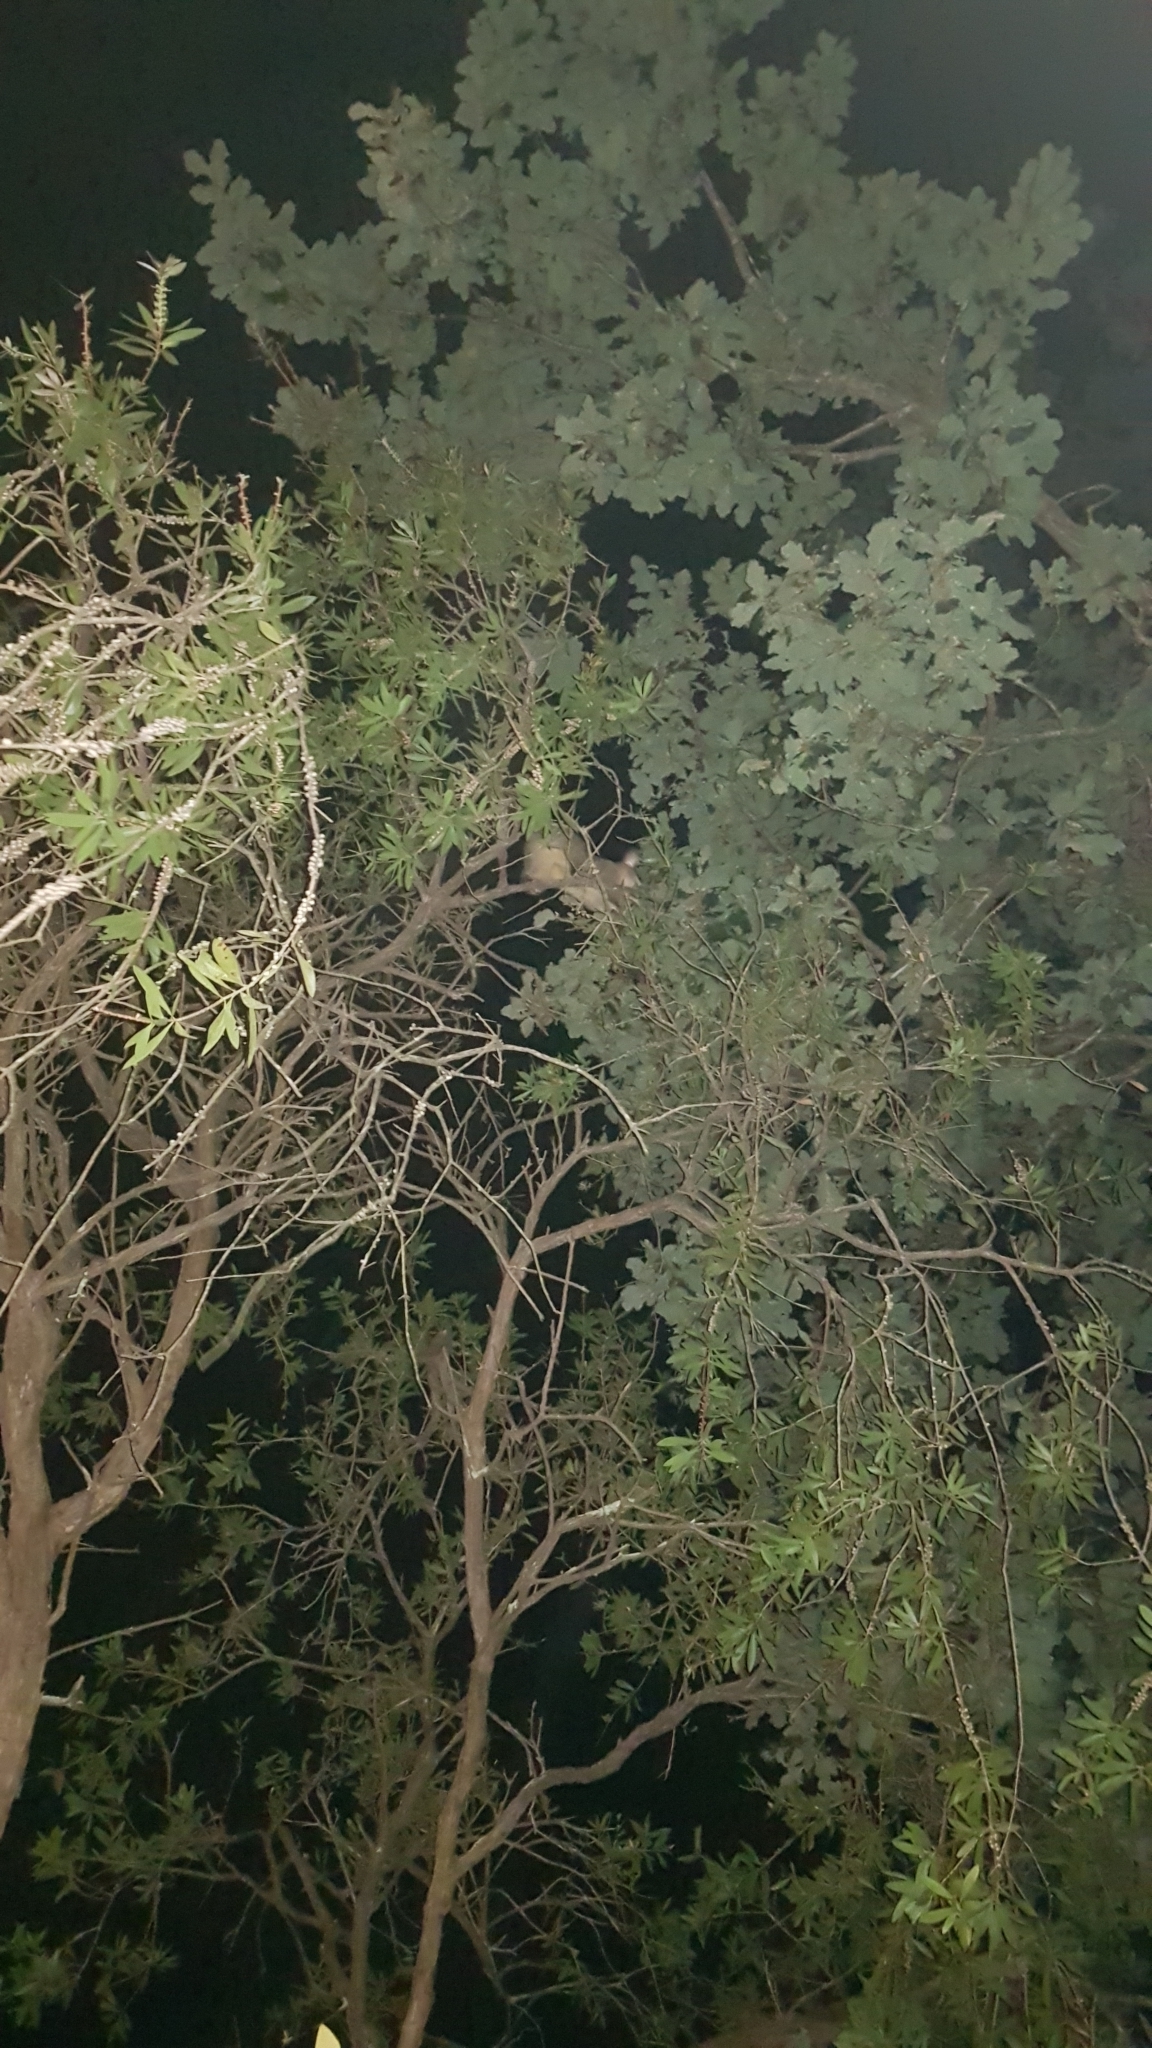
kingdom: Animalia
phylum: Chordata
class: Mammalia
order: Diprotodontia
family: Phalangeridae
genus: Trichosurus
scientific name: Trichosurus vulpecula
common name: Common brushtail
